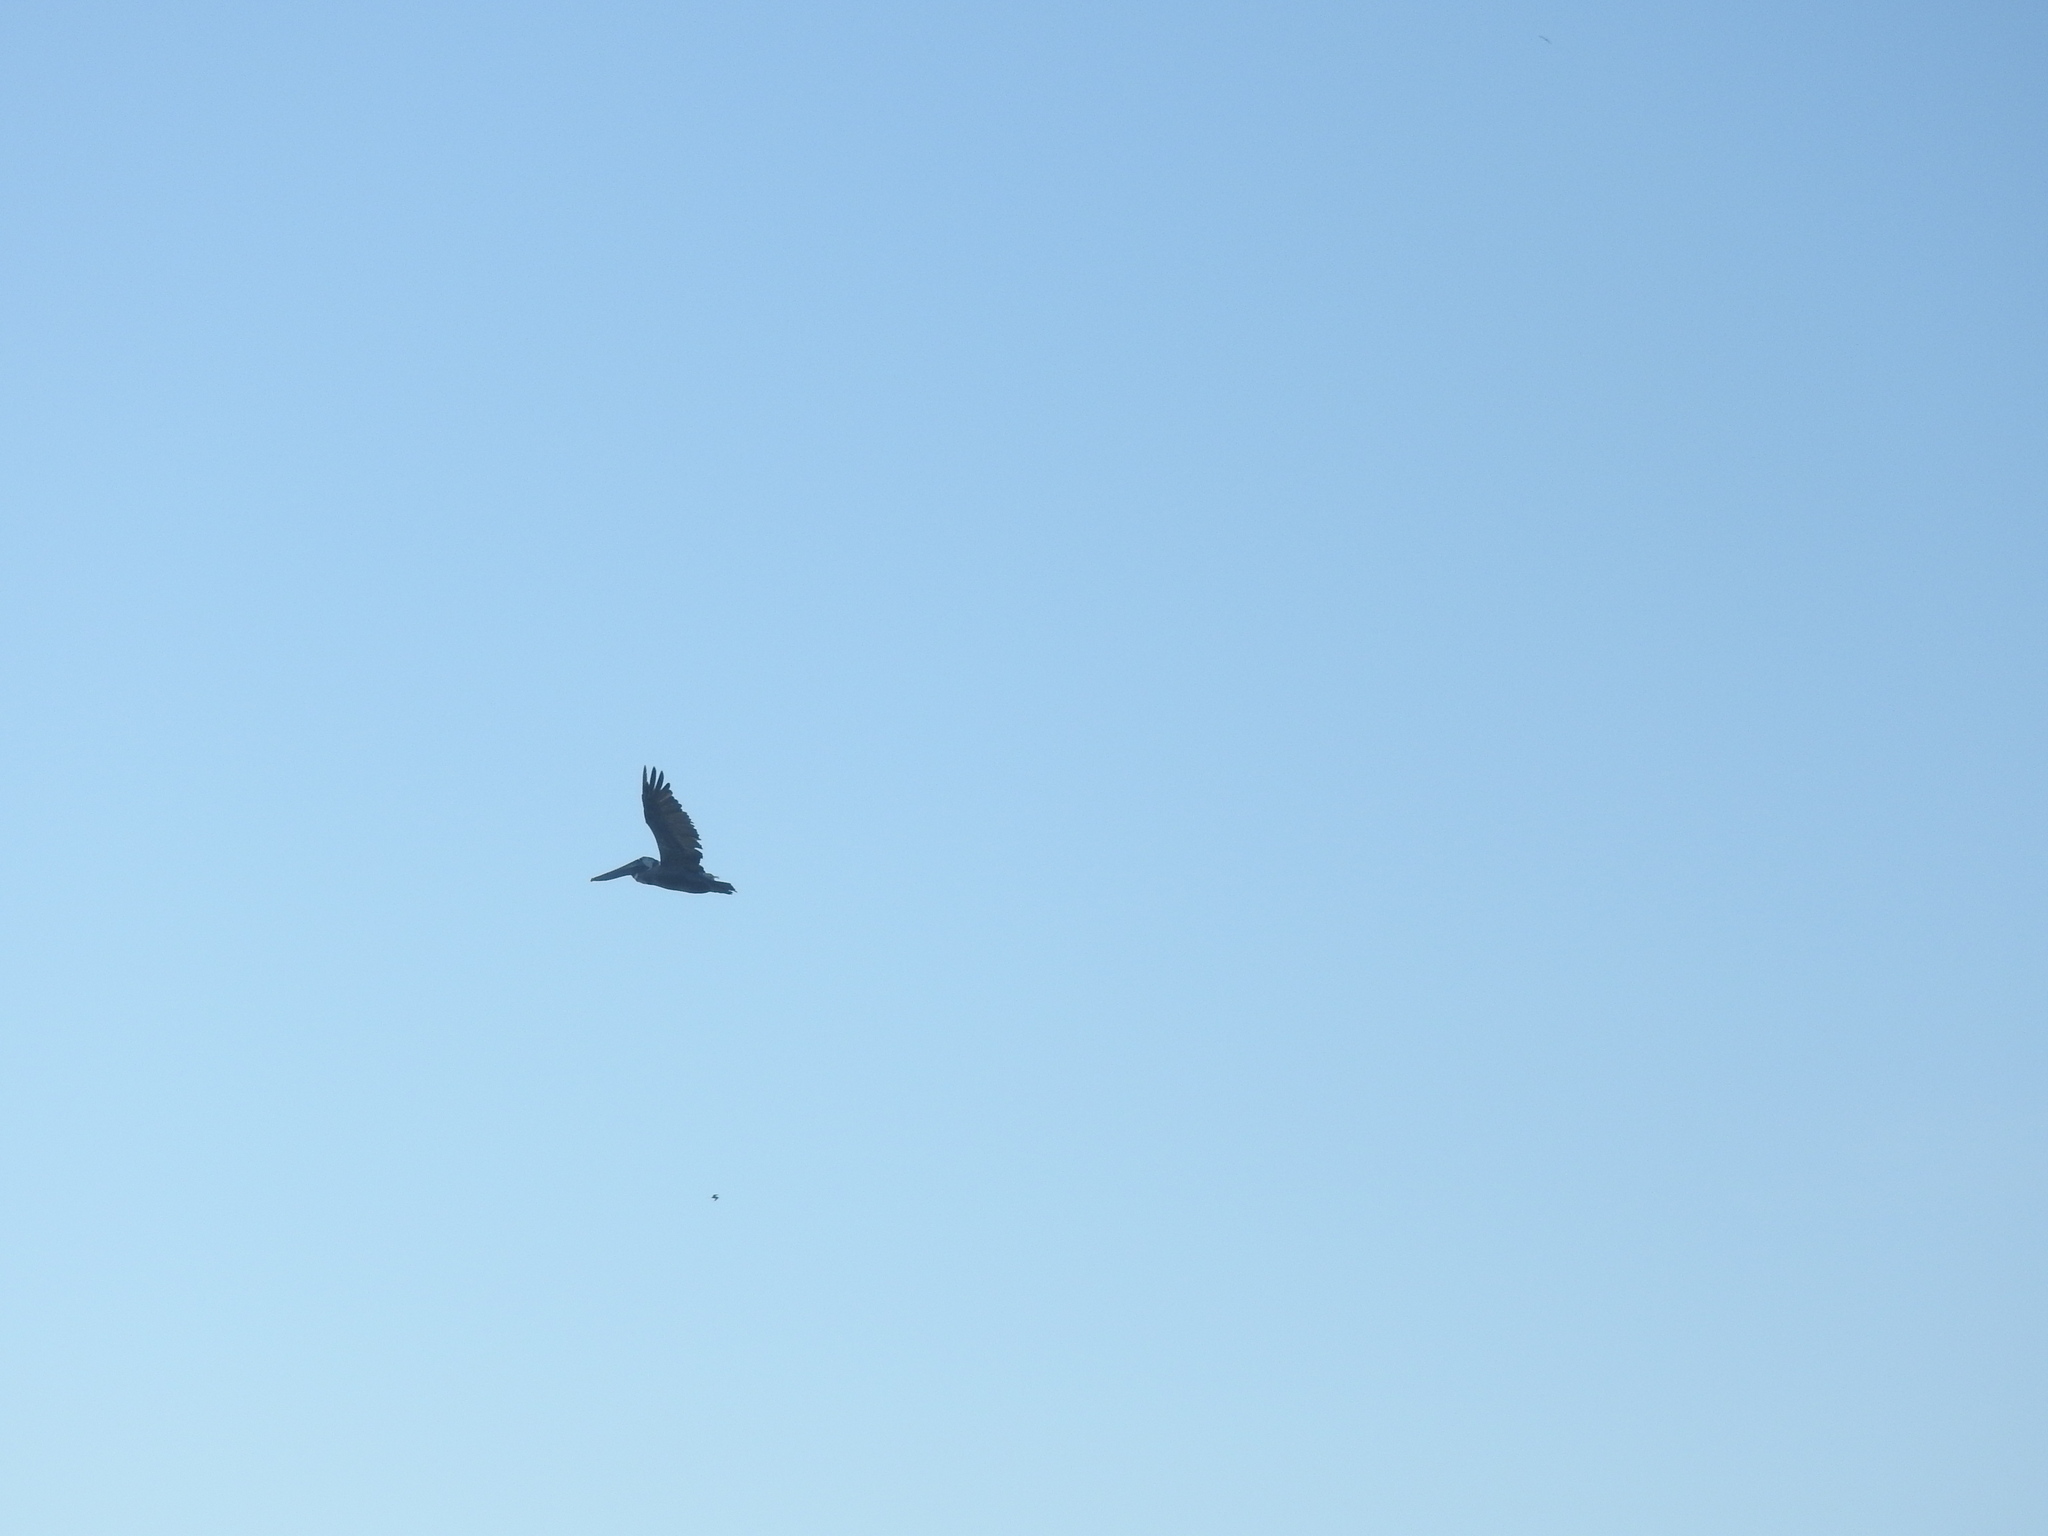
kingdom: Animalia
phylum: Chordata
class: Aves
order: Pelecaniformes
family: Pelecanidae
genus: Pelecanus
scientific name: Pelecanus occidentalis
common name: Brown pelican
